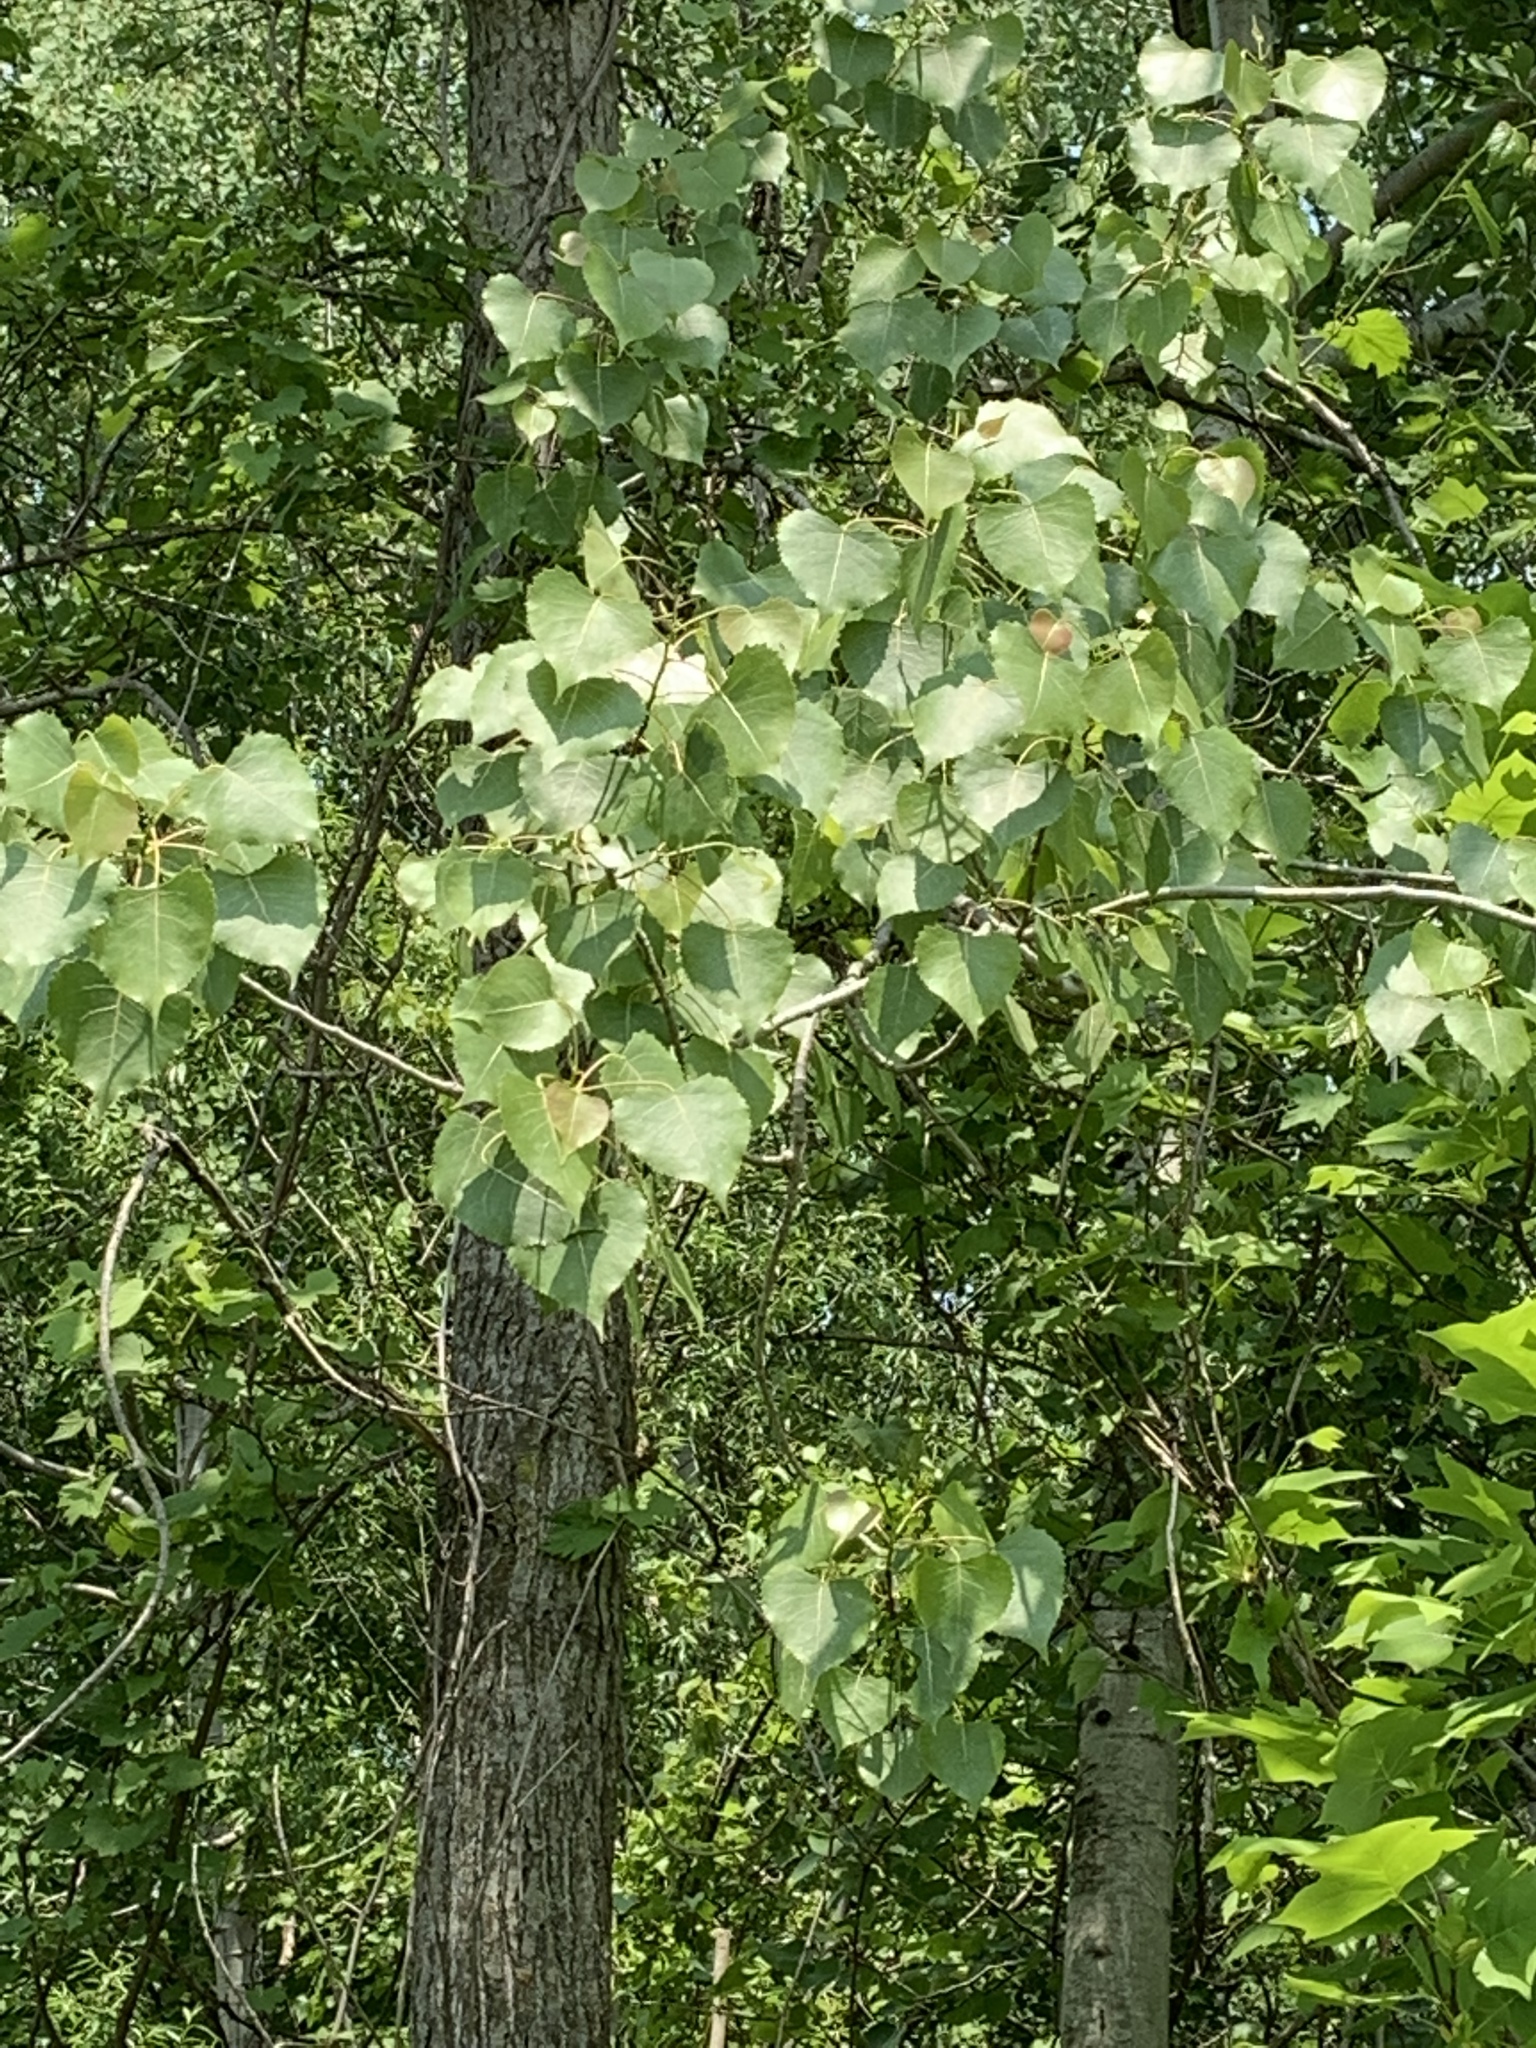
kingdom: Plantae
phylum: Tracheophyta
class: Magnoliopsida
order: Malpighiales
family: Salicaceae
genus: Populus
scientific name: Populus deltoides
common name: Eastern cottonwood
